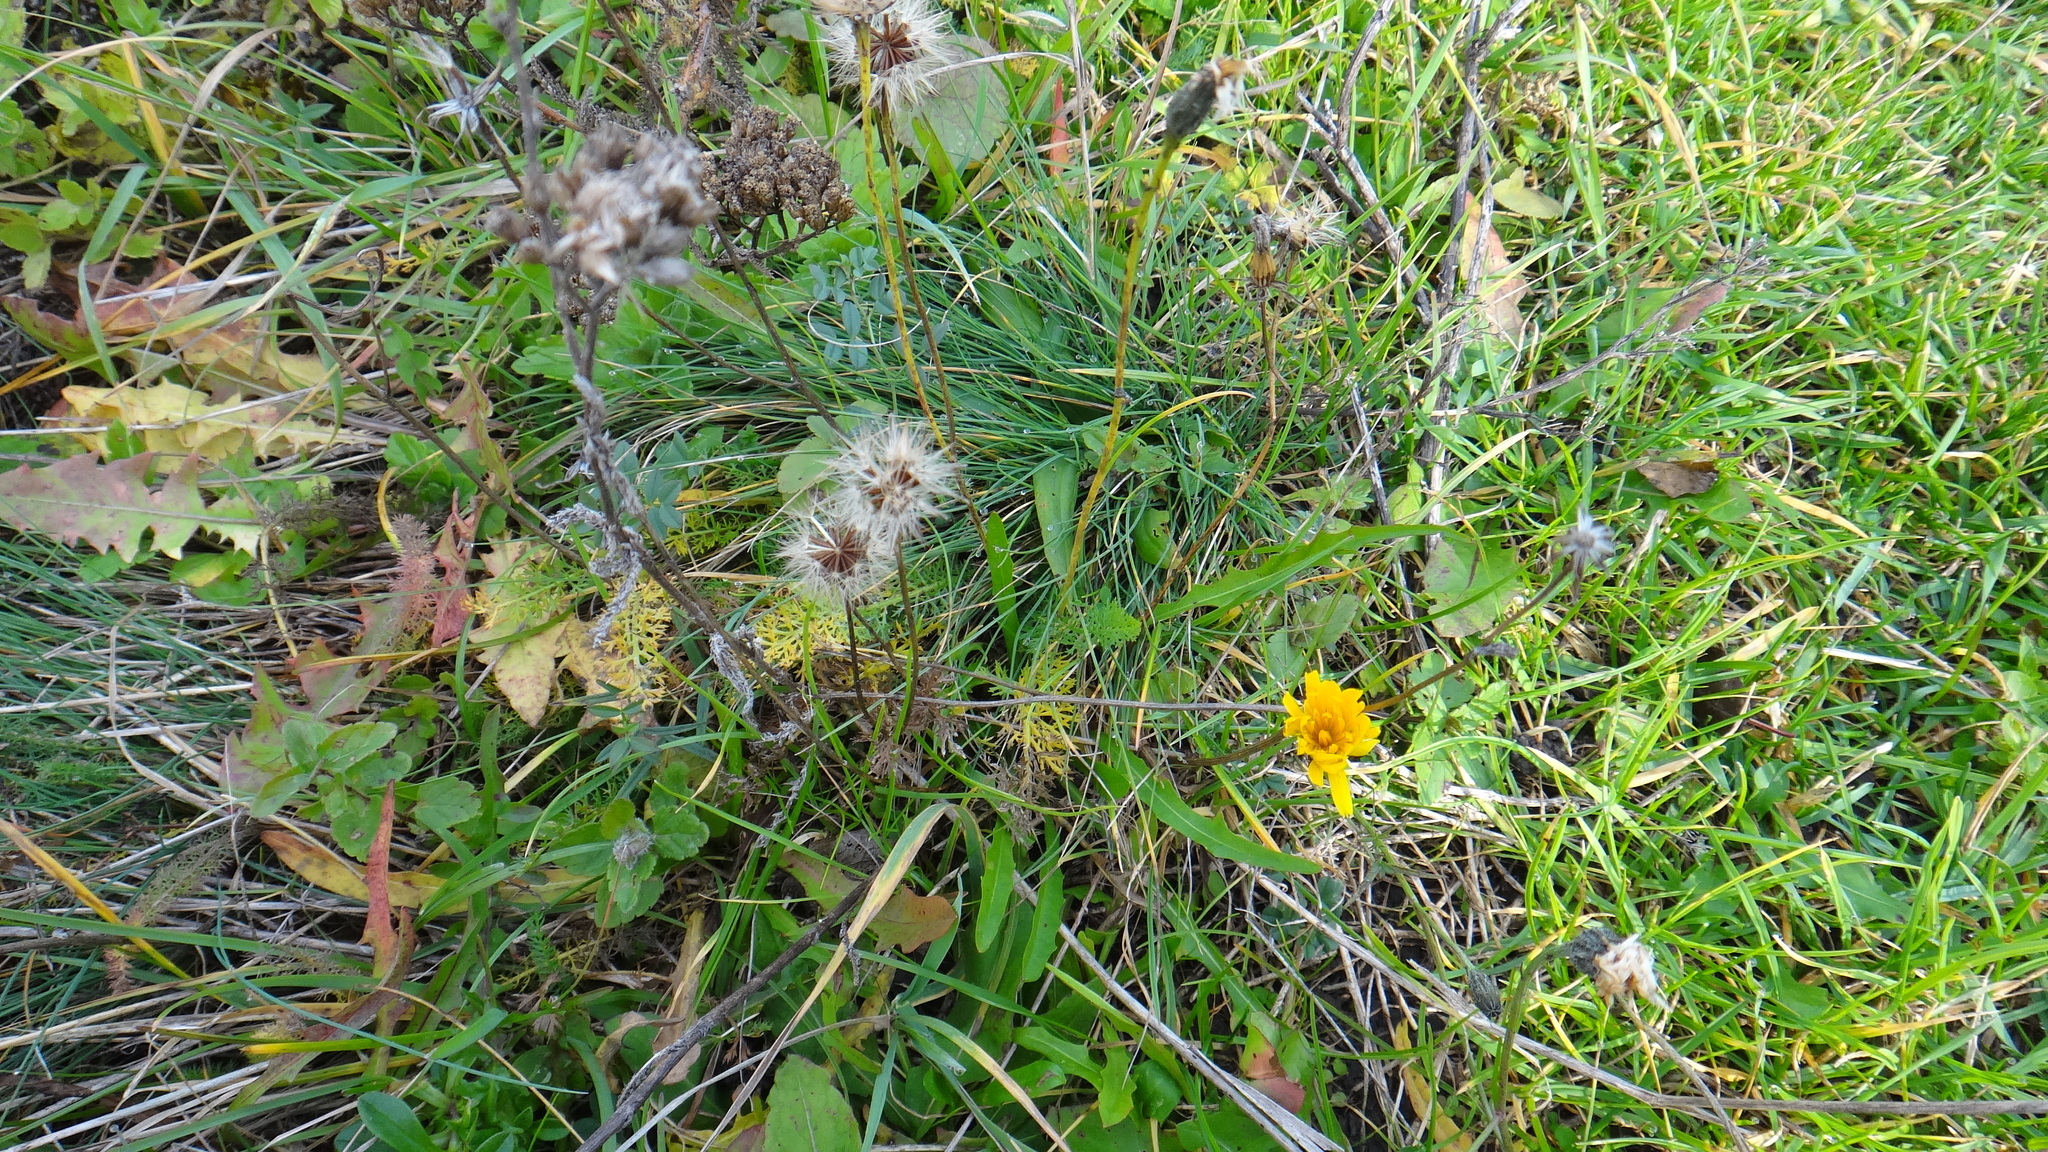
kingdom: Plantae
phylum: Tracheophyta
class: Magnoliopsida
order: Asterales
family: Asteraceae
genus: Scorzoneroides
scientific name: Scorzoneroides autumnalis
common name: Autumn hawkbit
